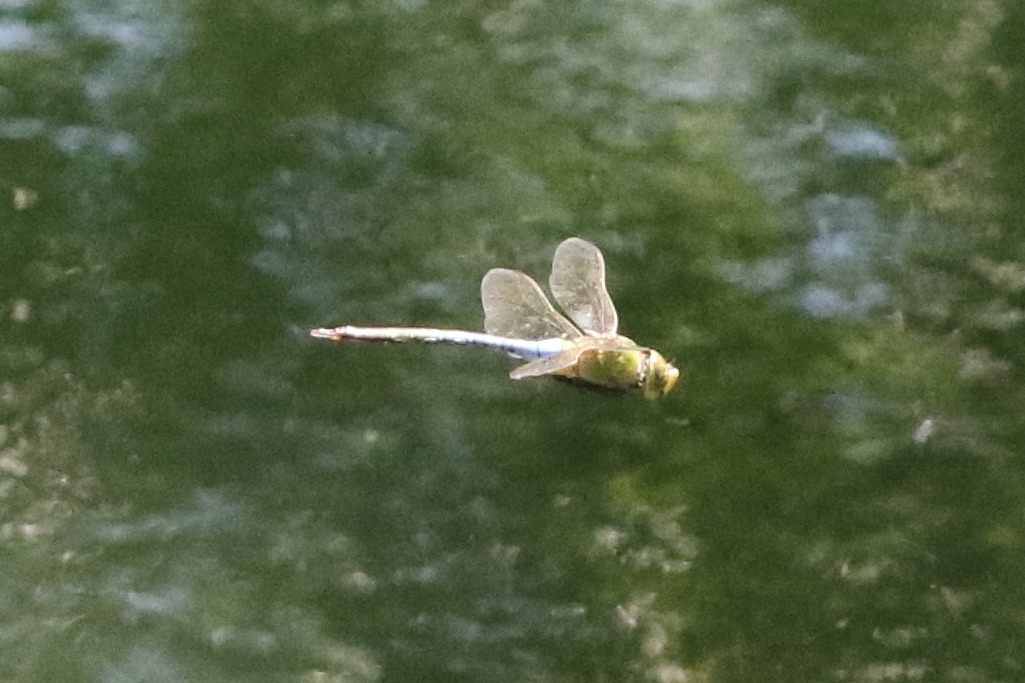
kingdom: Animalia
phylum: Arthropoda
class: Insecta
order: Odonata
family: Aeshnidae
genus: Anax
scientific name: Anax junius
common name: Common green darner
